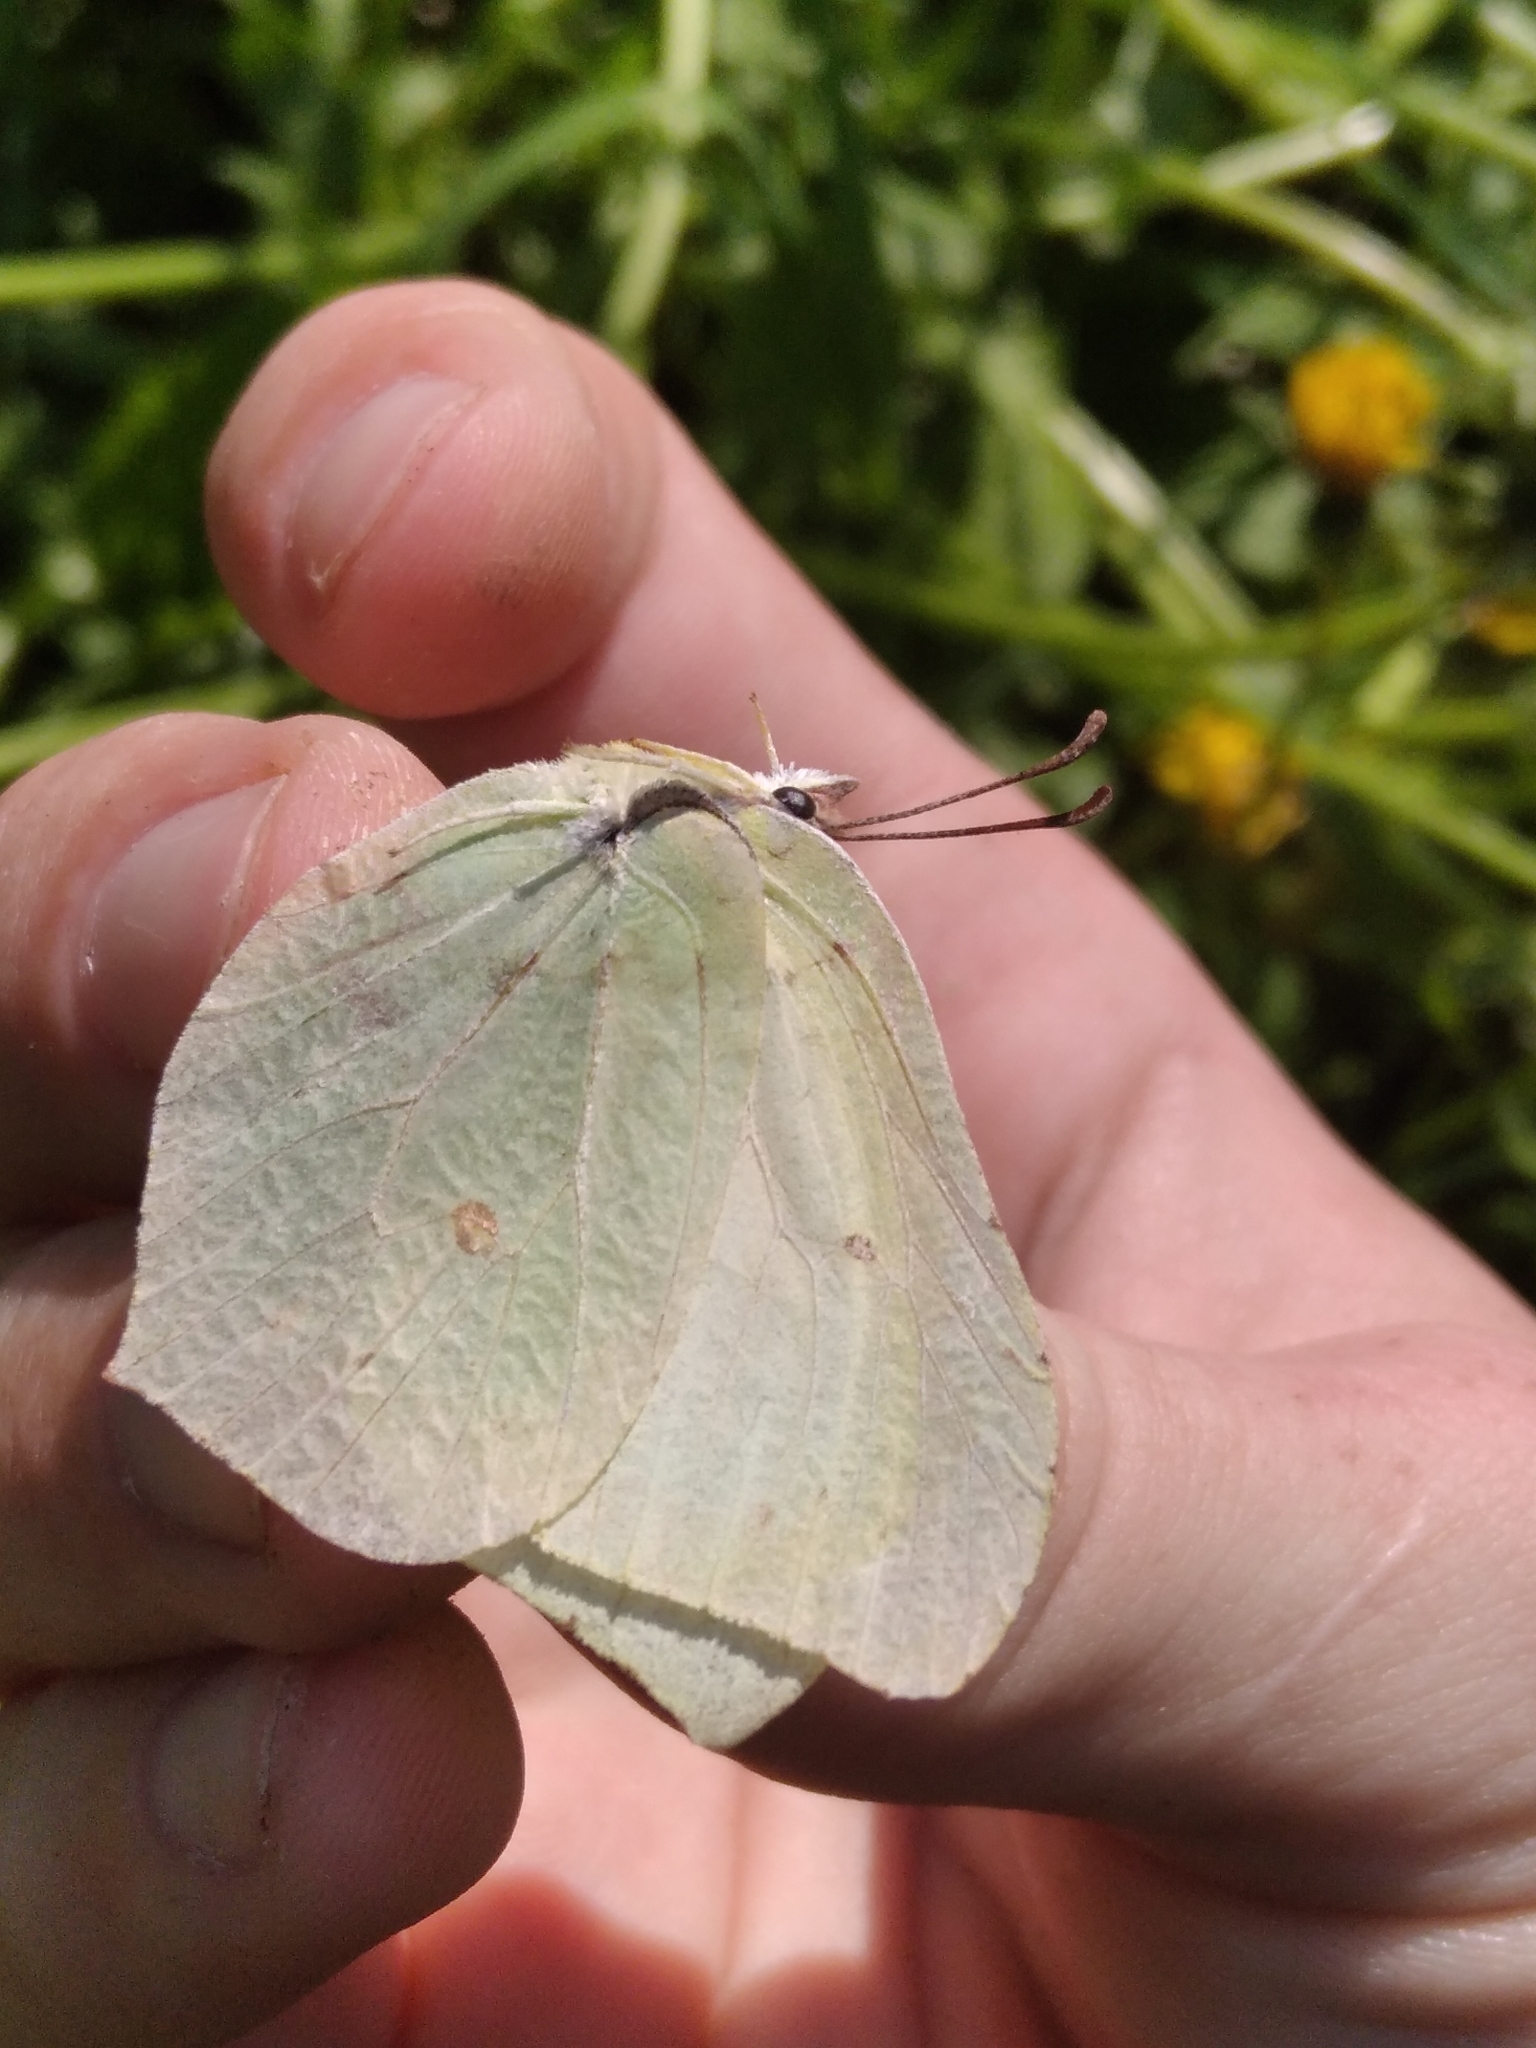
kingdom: Animalia
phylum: Arthropoda
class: Insecta
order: Lepidoptera
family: Pieridae
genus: Gonepteryx
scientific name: Gonepteryx rhamni
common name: Brimstone
